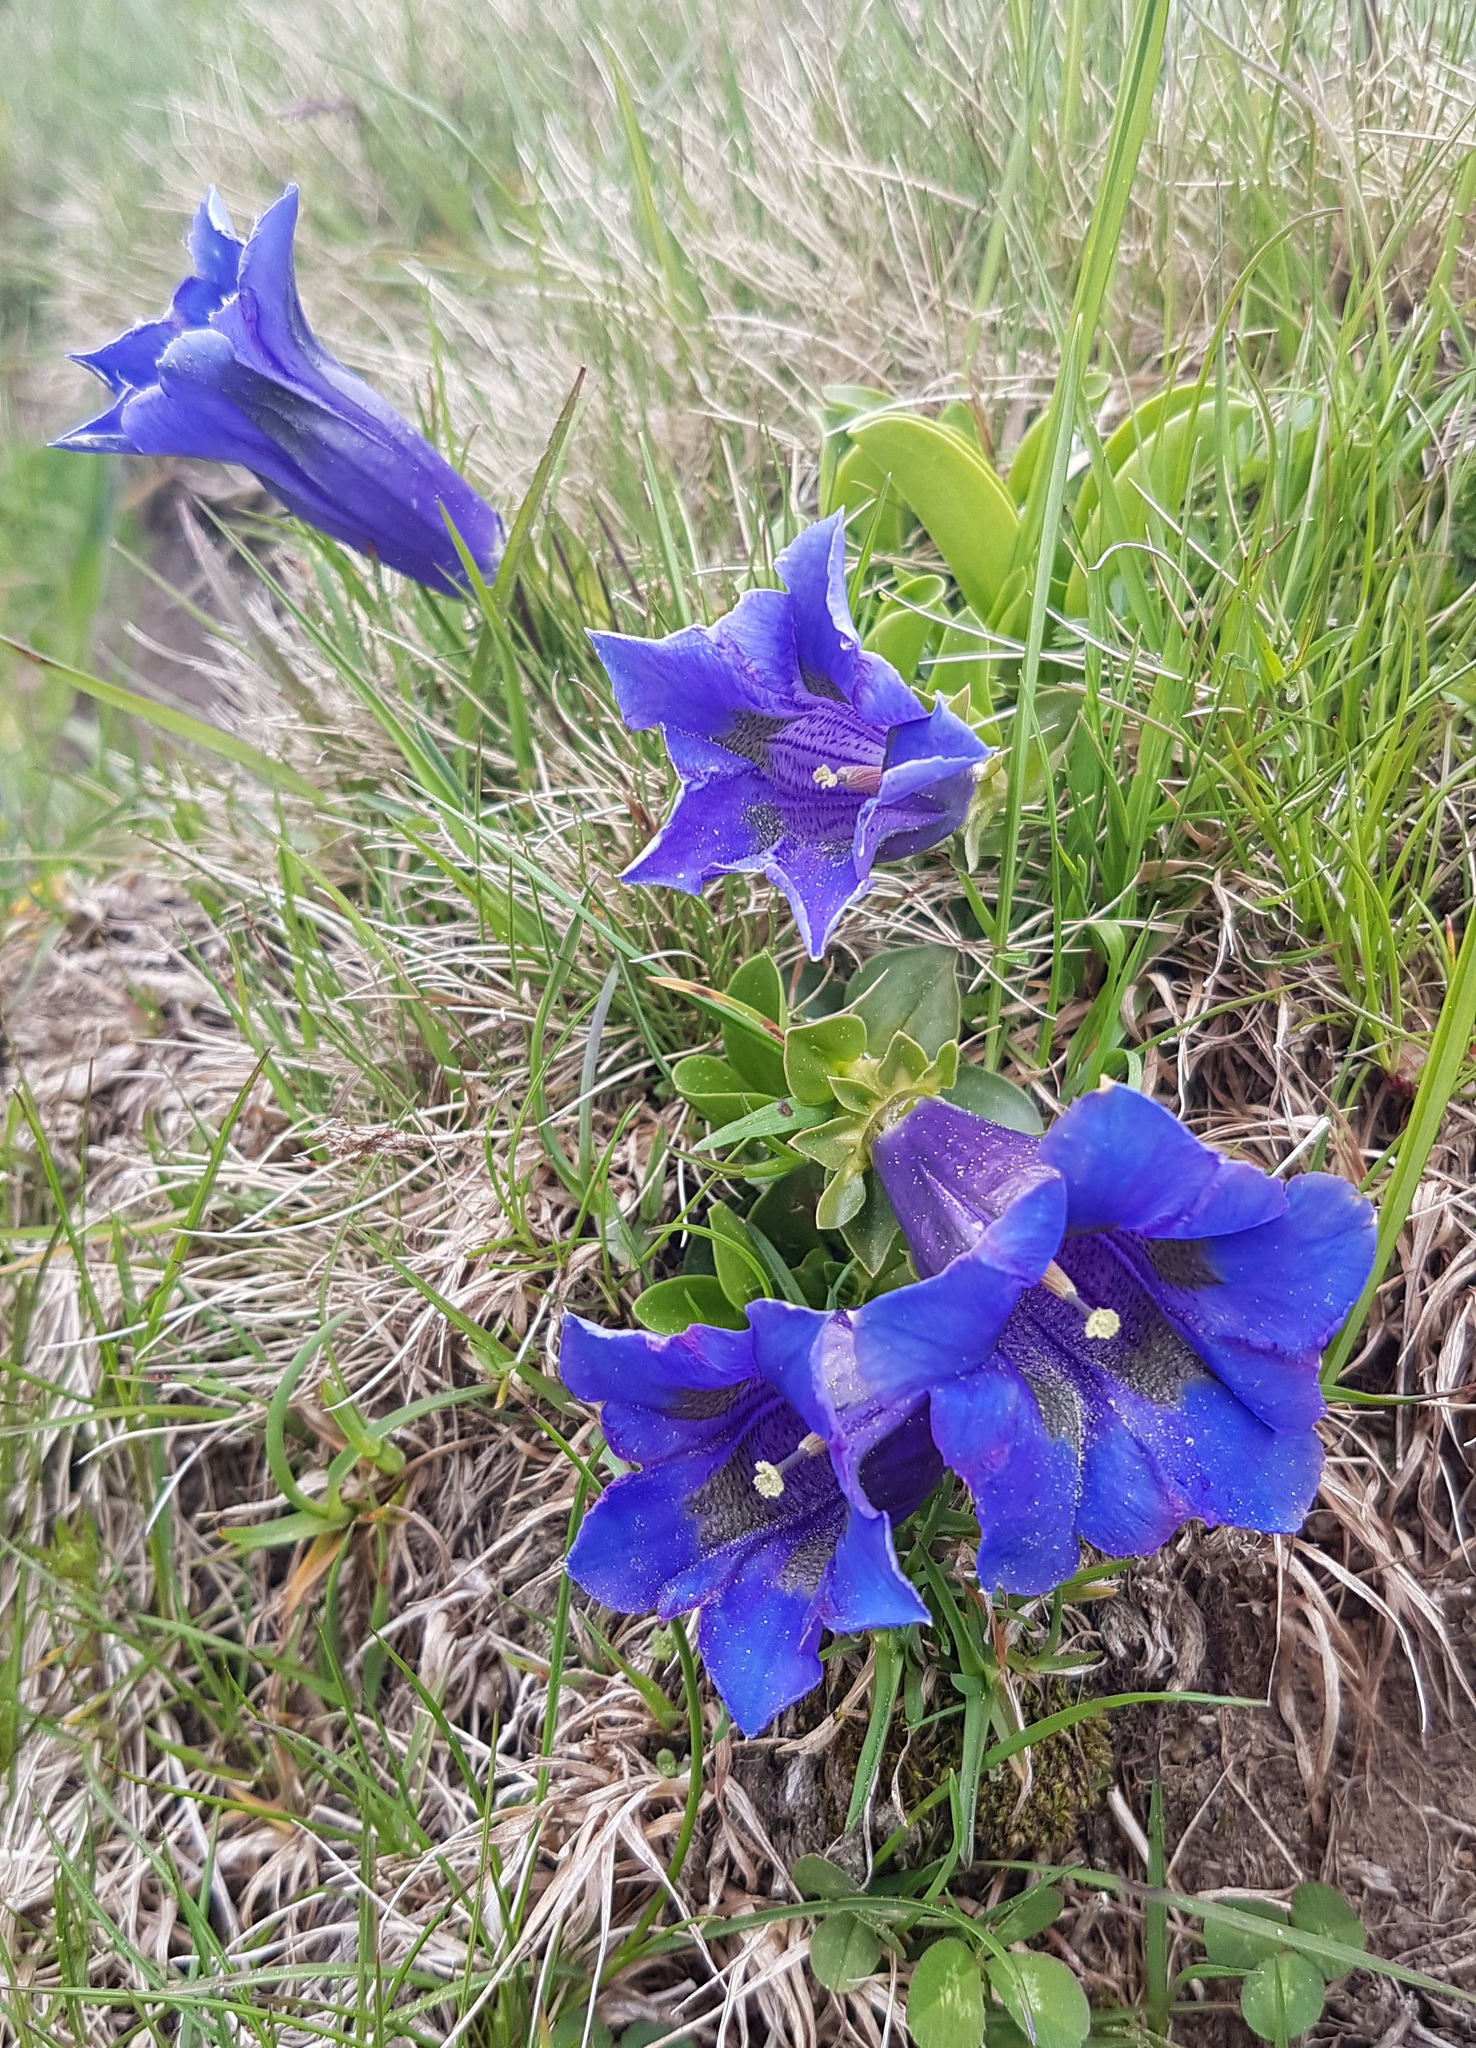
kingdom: Plantae
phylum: Tracheophyta
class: Magnoliopsida
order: Gentianales
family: Gentianaceae
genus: Gentiana
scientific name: Gentiana acaulis
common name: Trumpet gentian
